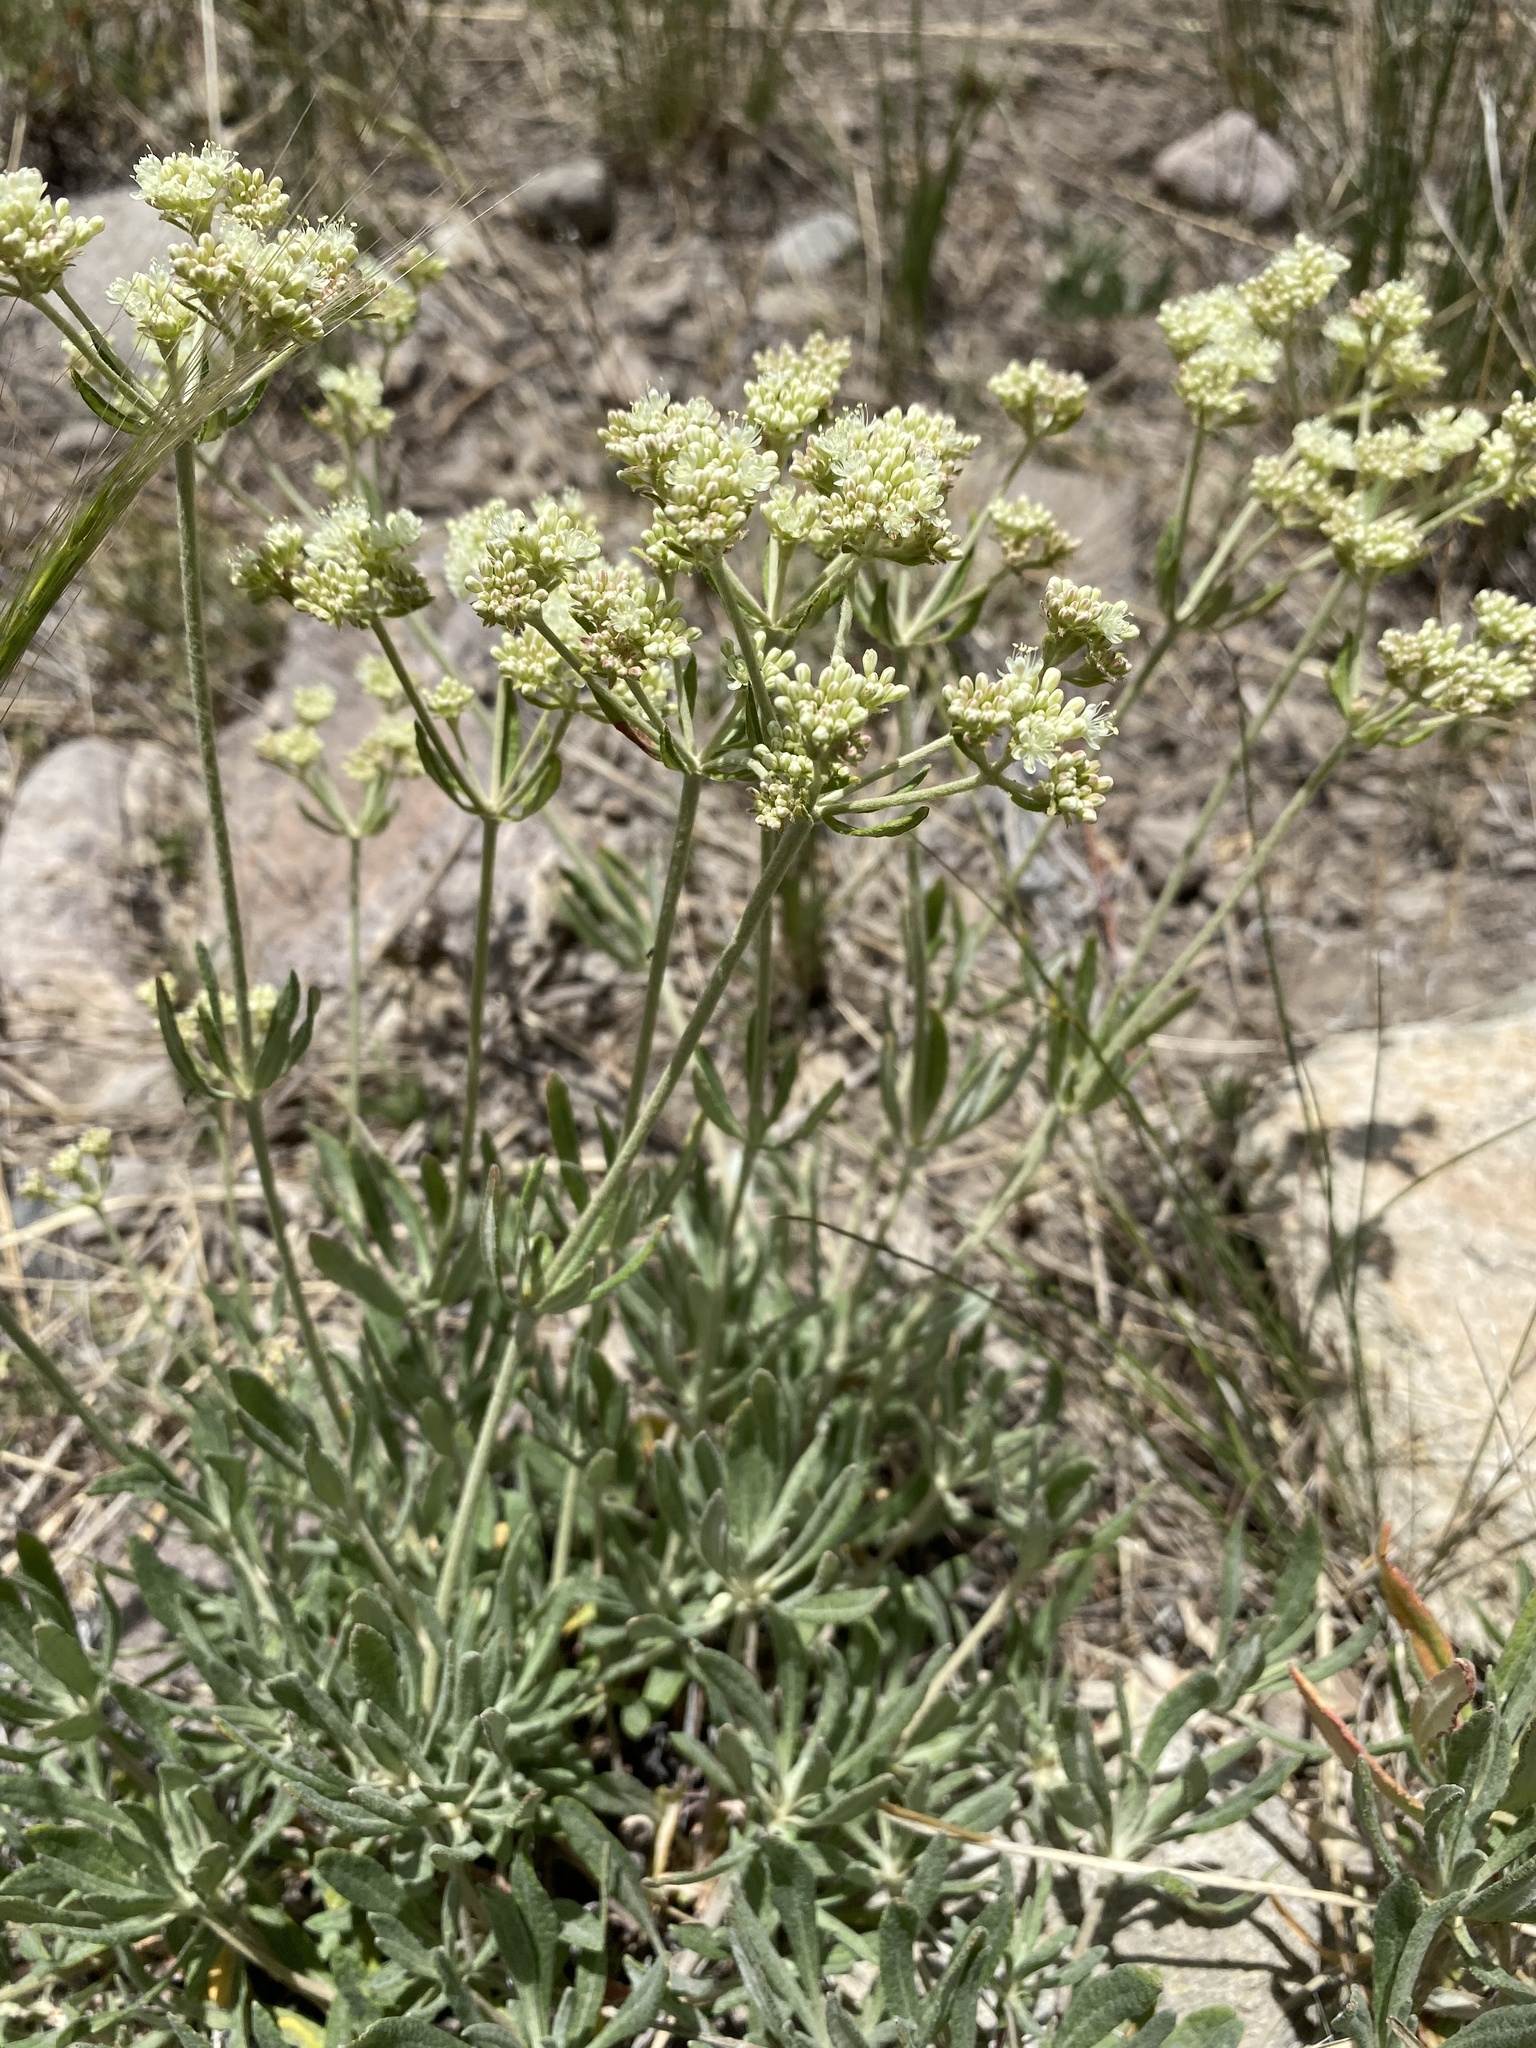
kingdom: Plantae
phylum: Tracheophyta
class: Magnoliopsida
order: Caryophyllales
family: Polygonaceae
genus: Eriogonum
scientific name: Eriogonum heracleoides
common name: Wyeth's buckwheat
